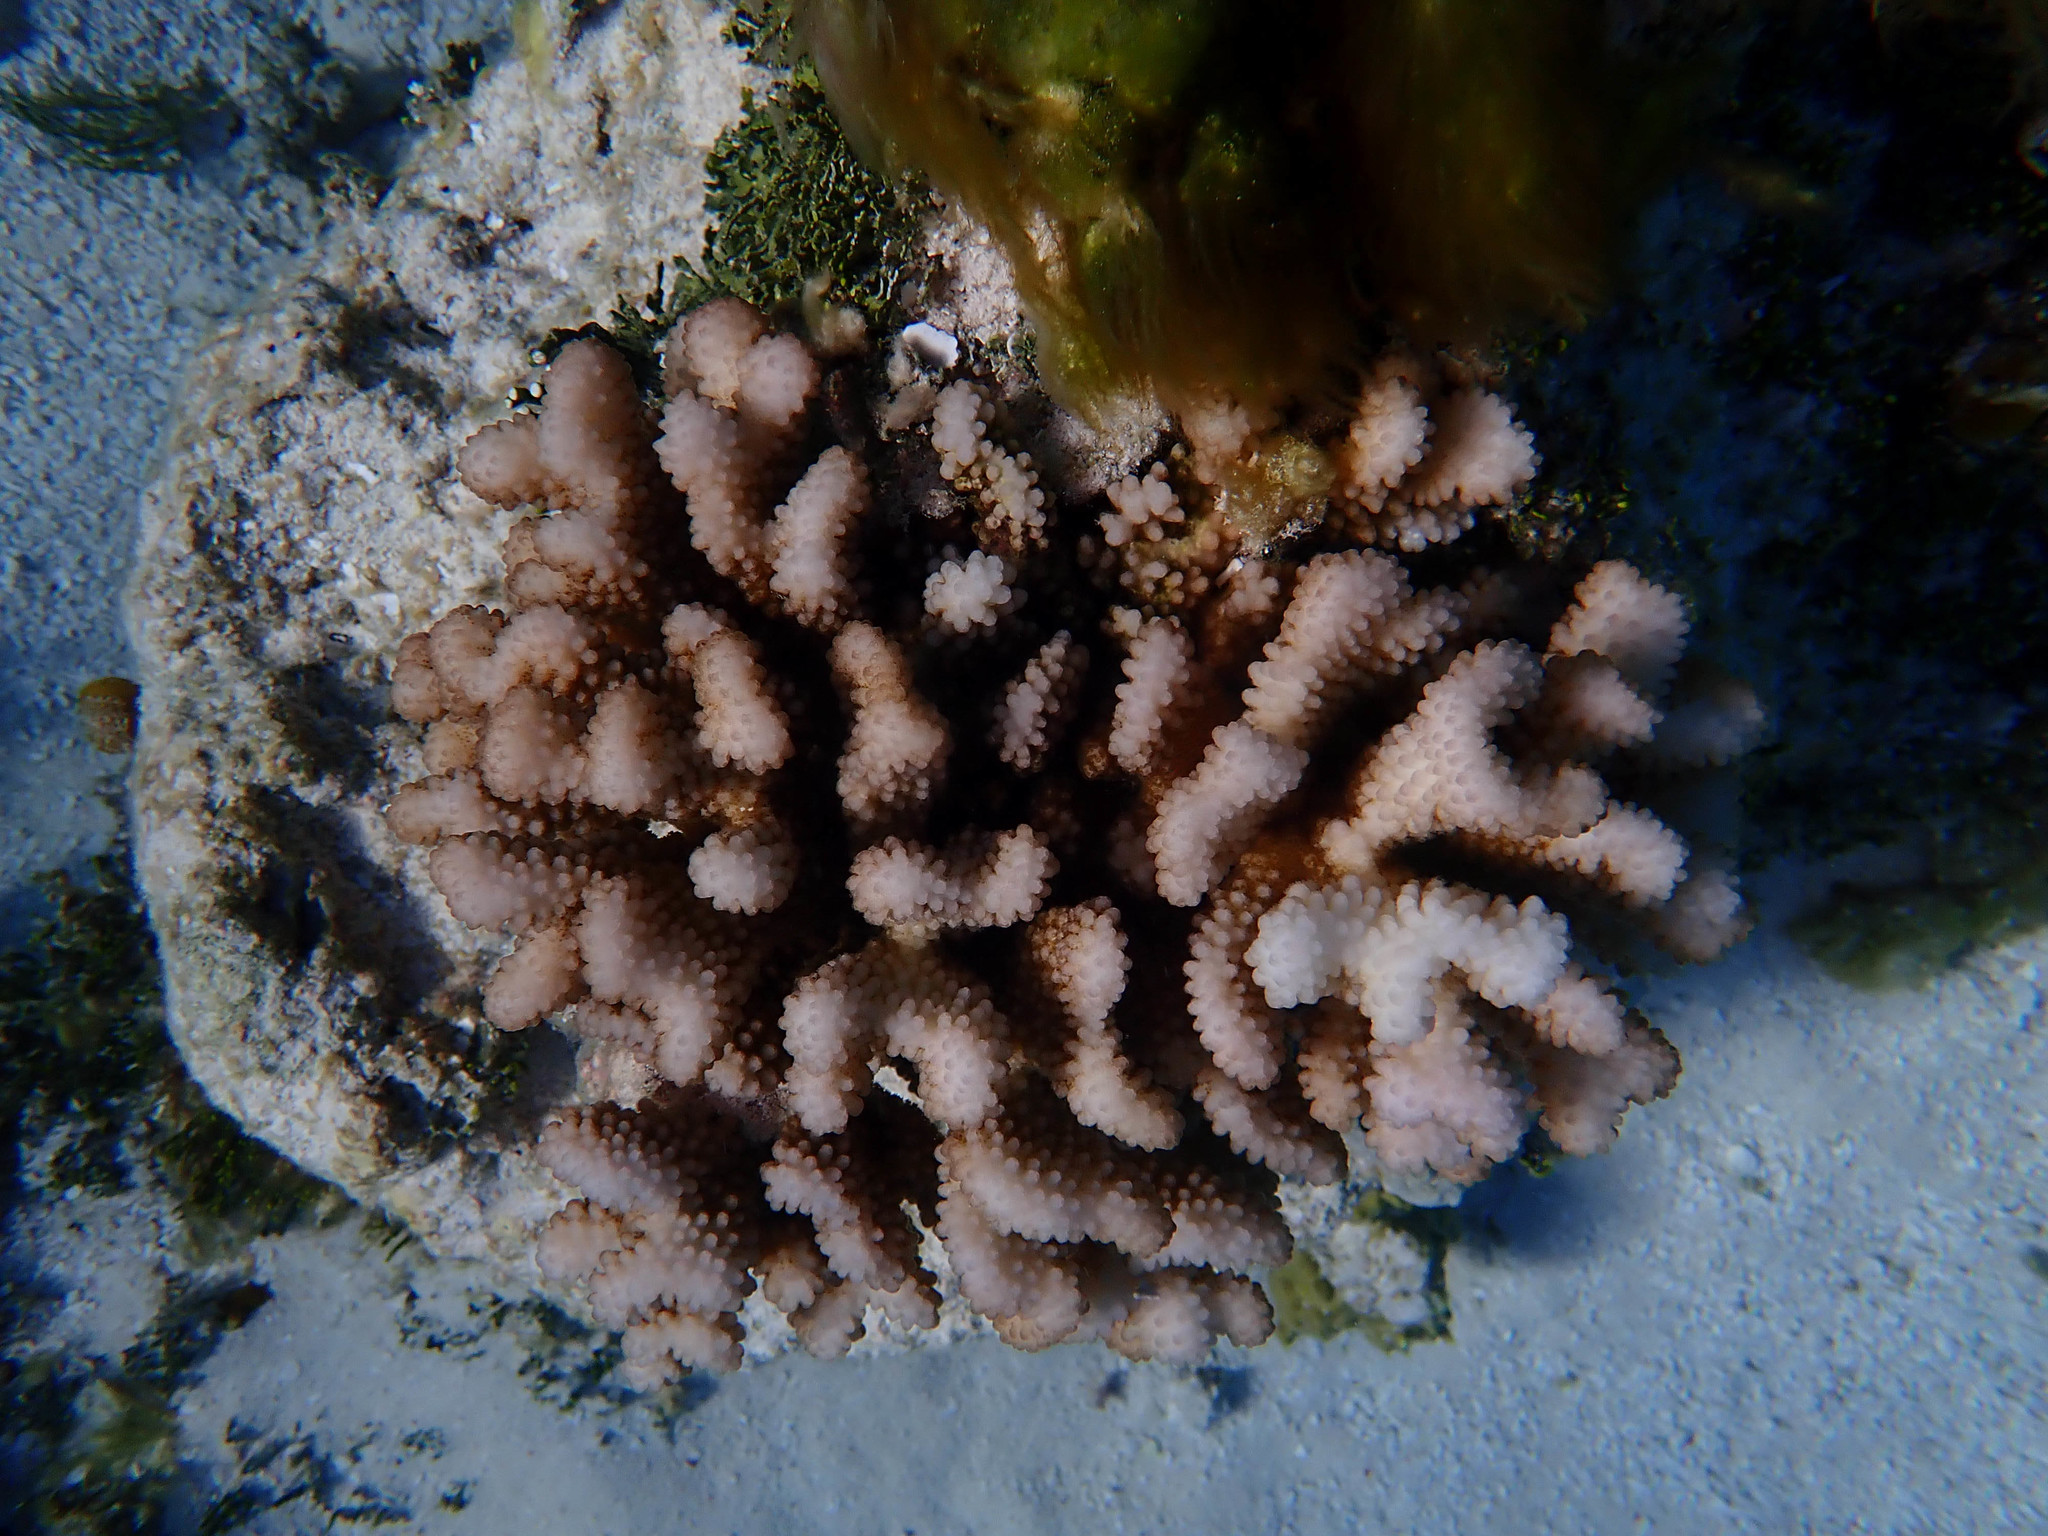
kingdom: Animalia
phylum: Cnidaria
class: Anthozoa
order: Scleractinia
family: Pocilloporidae
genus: Pocillopora
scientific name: Pocillopora verrucosa
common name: Cauliflower coral
